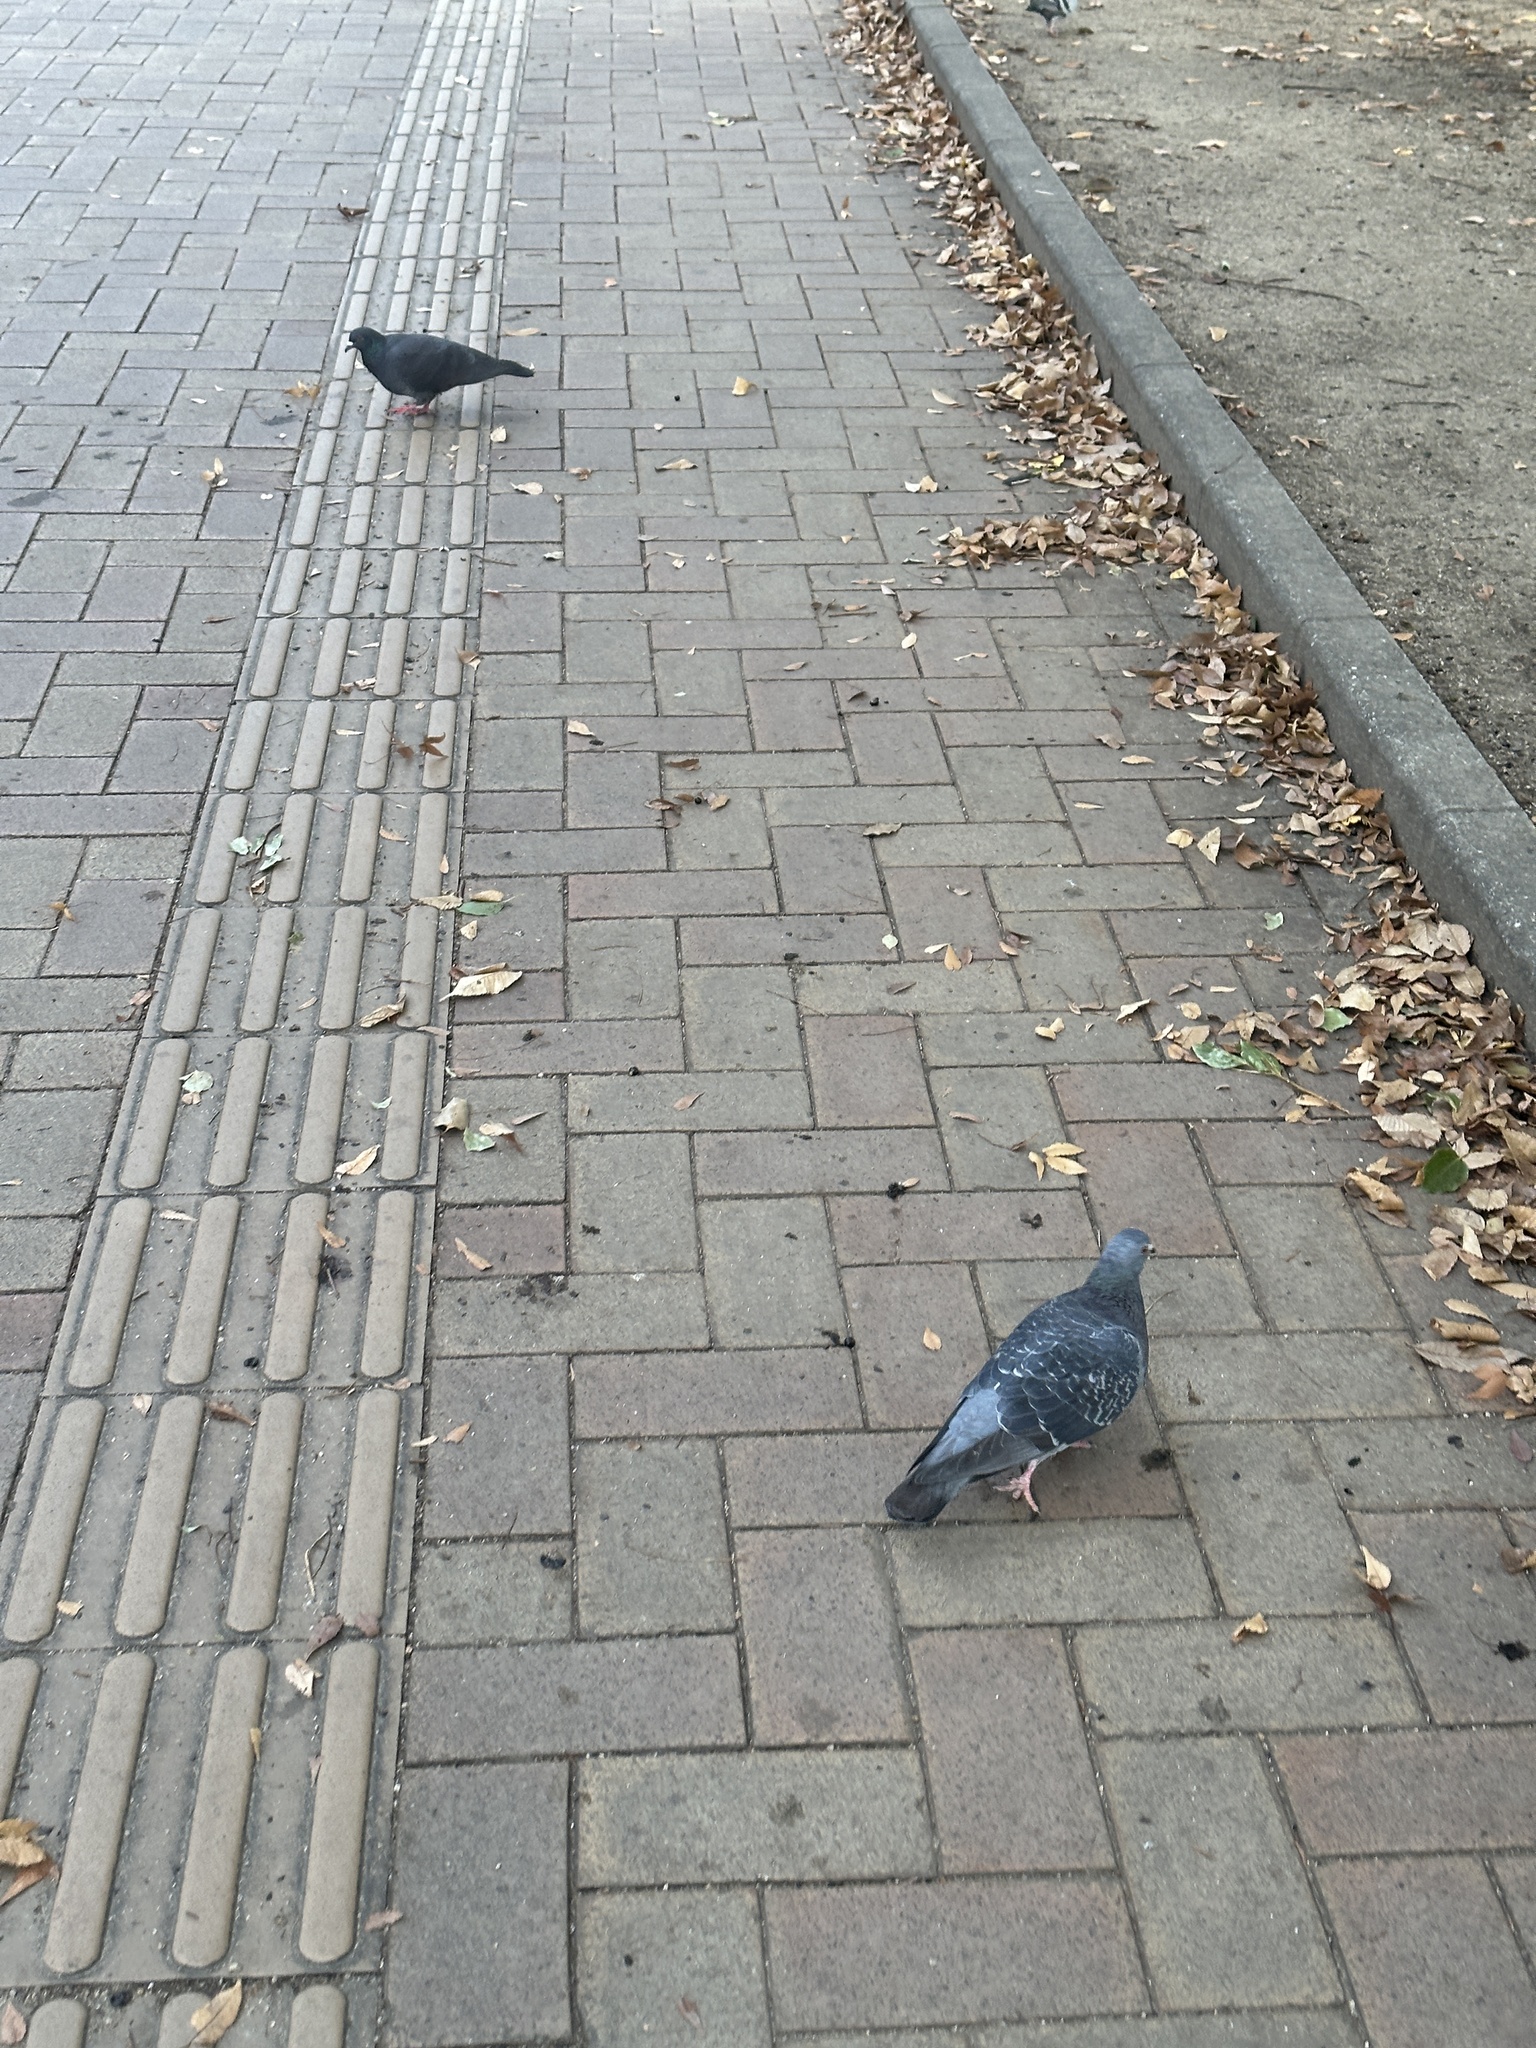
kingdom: Animalia
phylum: Chordata
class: Aves
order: Columbiformes
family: Columbidae
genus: Columba
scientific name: Columba livia
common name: Rock pigeon
